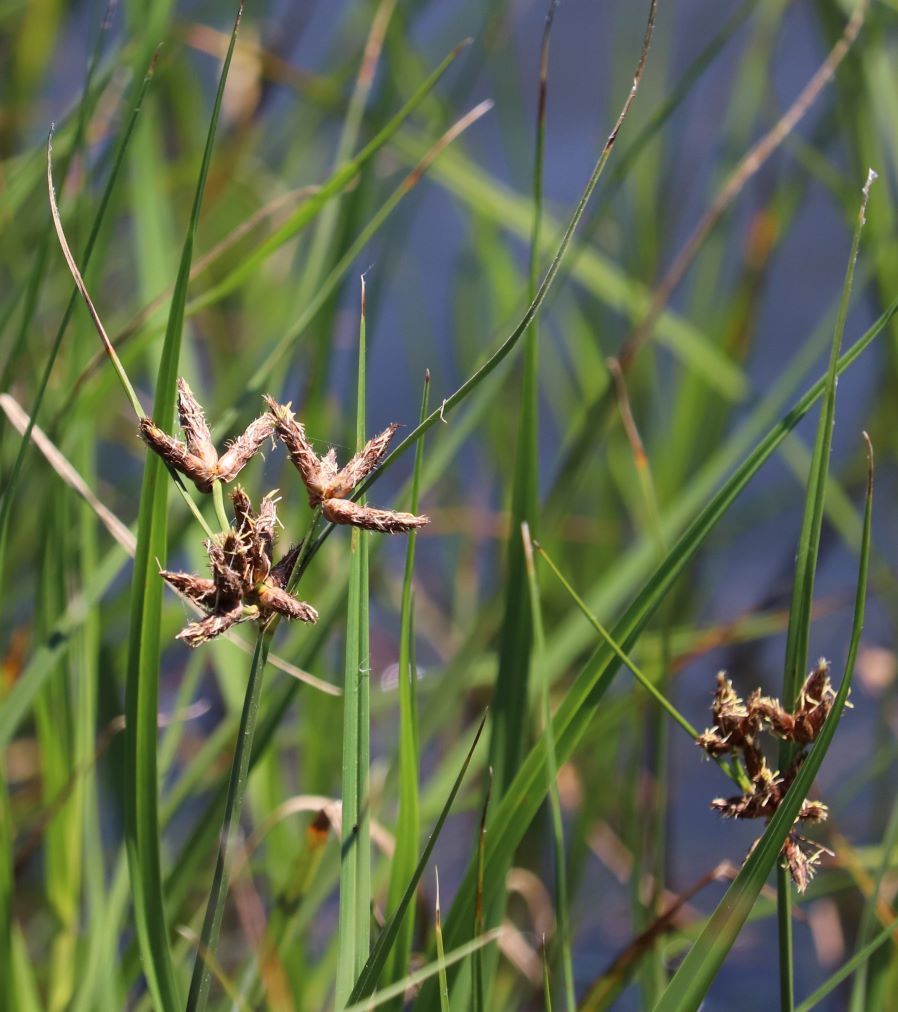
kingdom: Plantae
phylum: Tracheophyta
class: Liliopsida
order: Poales
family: Cyperaceae
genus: Bolboschoenus
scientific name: Bolboschoenus maritimus
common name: Sea club-rush
